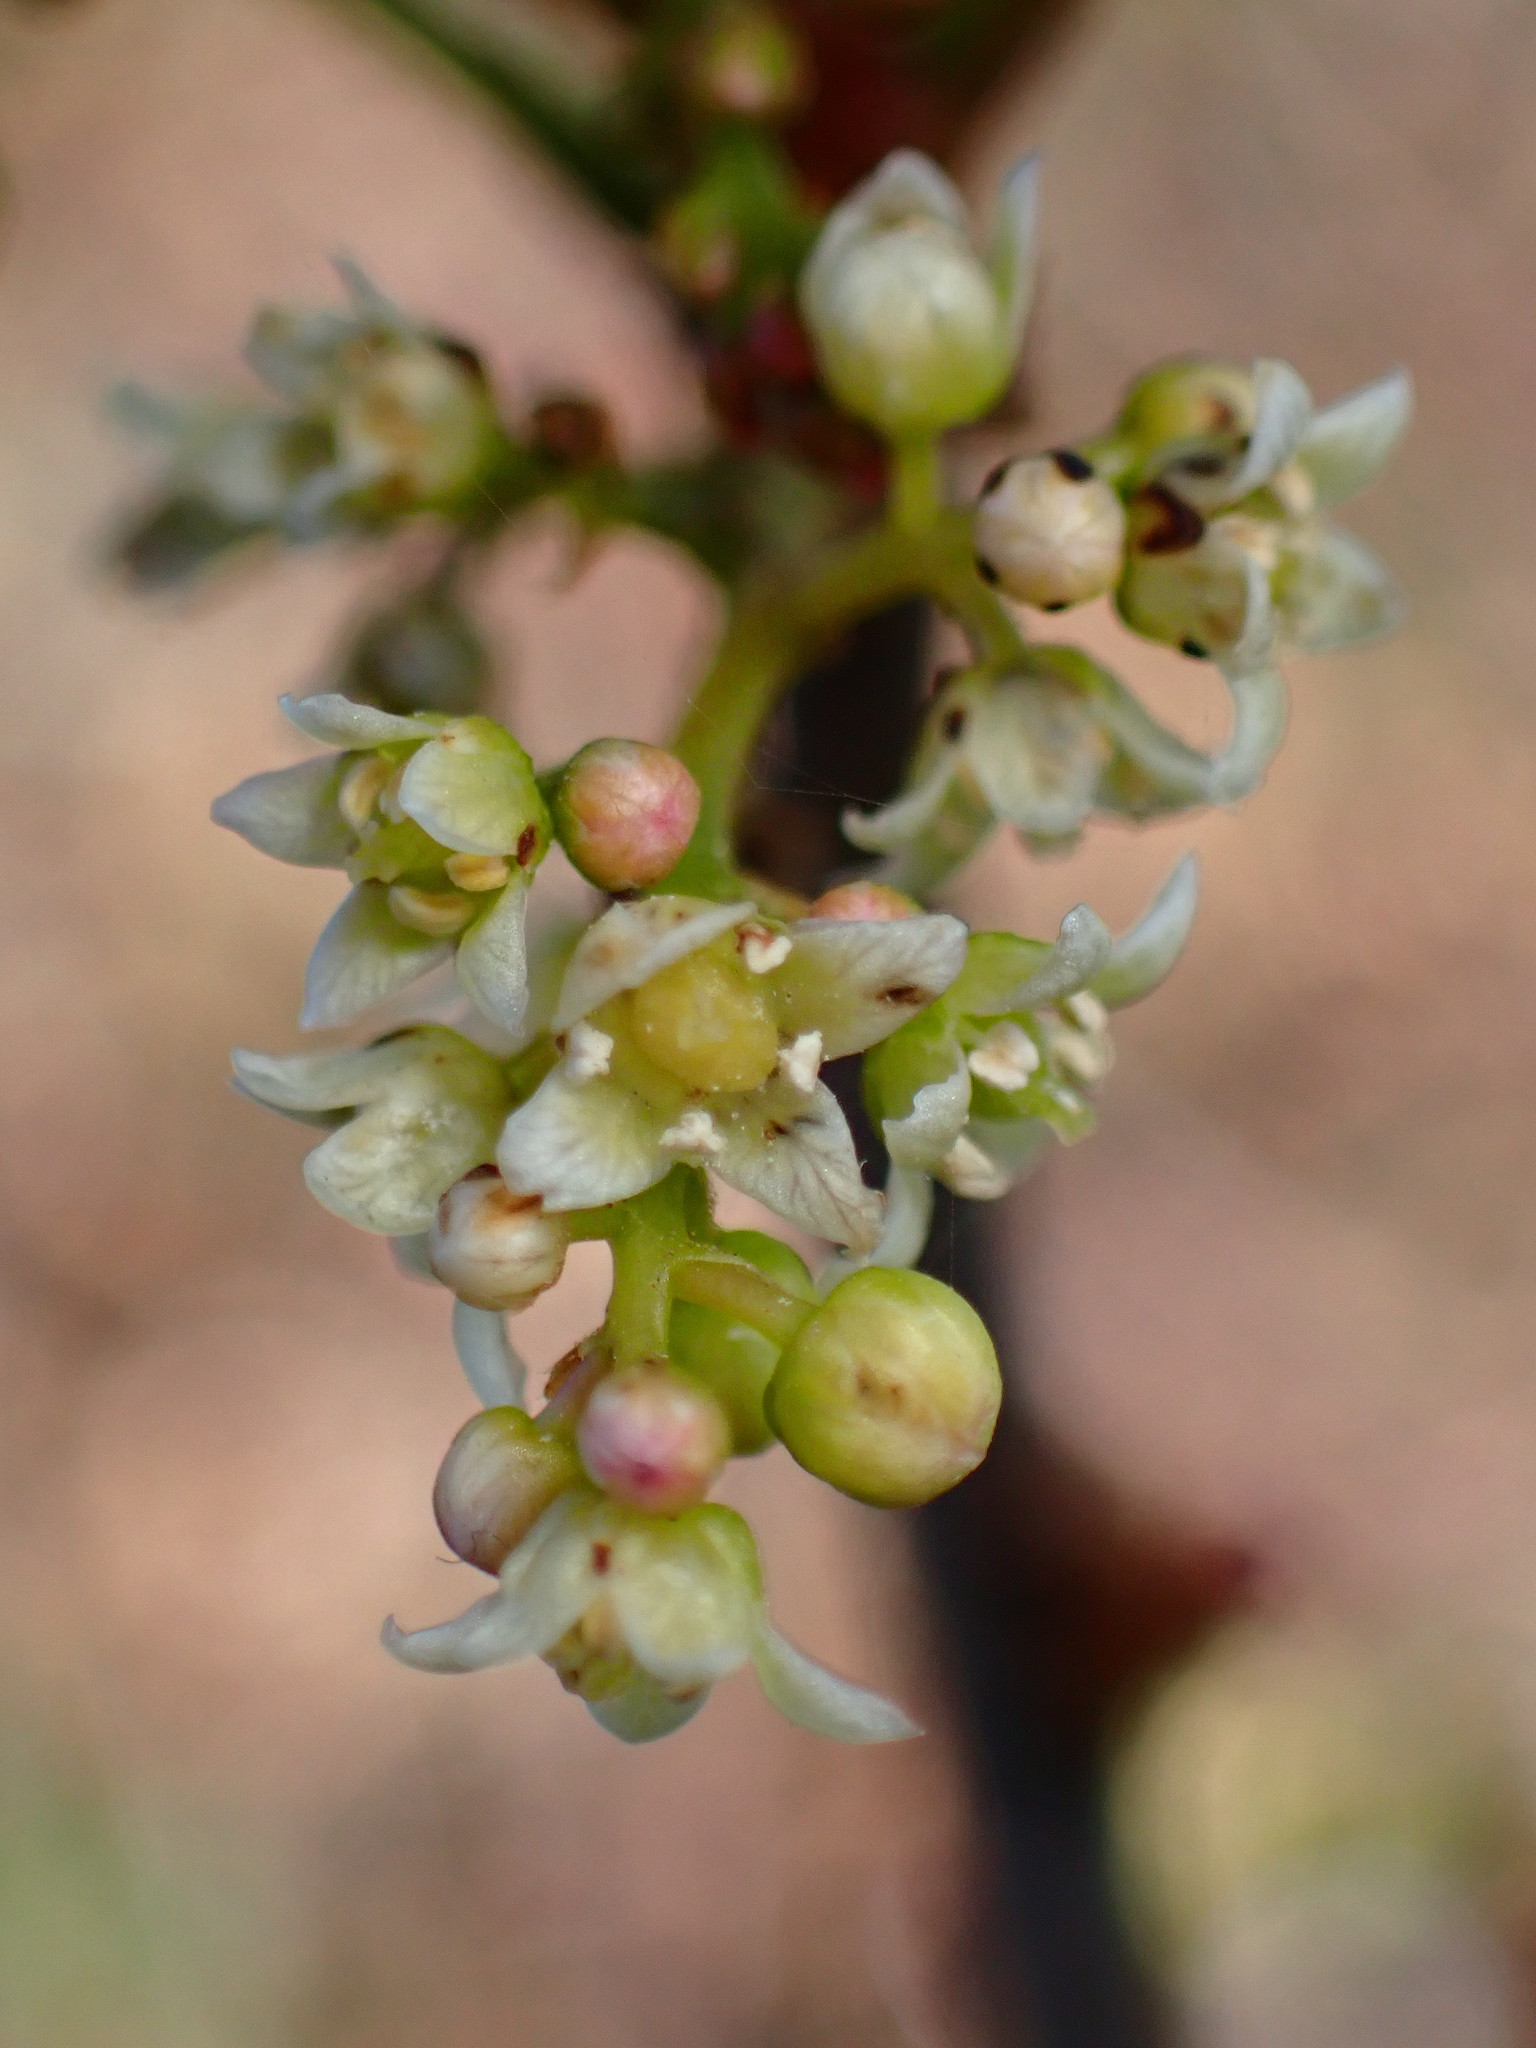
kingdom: Plantae
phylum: Tracheophyta
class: Magnoliopsida
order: Sapindales
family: Anacardiaceae
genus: Toxicodendron
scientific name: Toxicodendron diversilobum
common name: Pacific poison-oak
